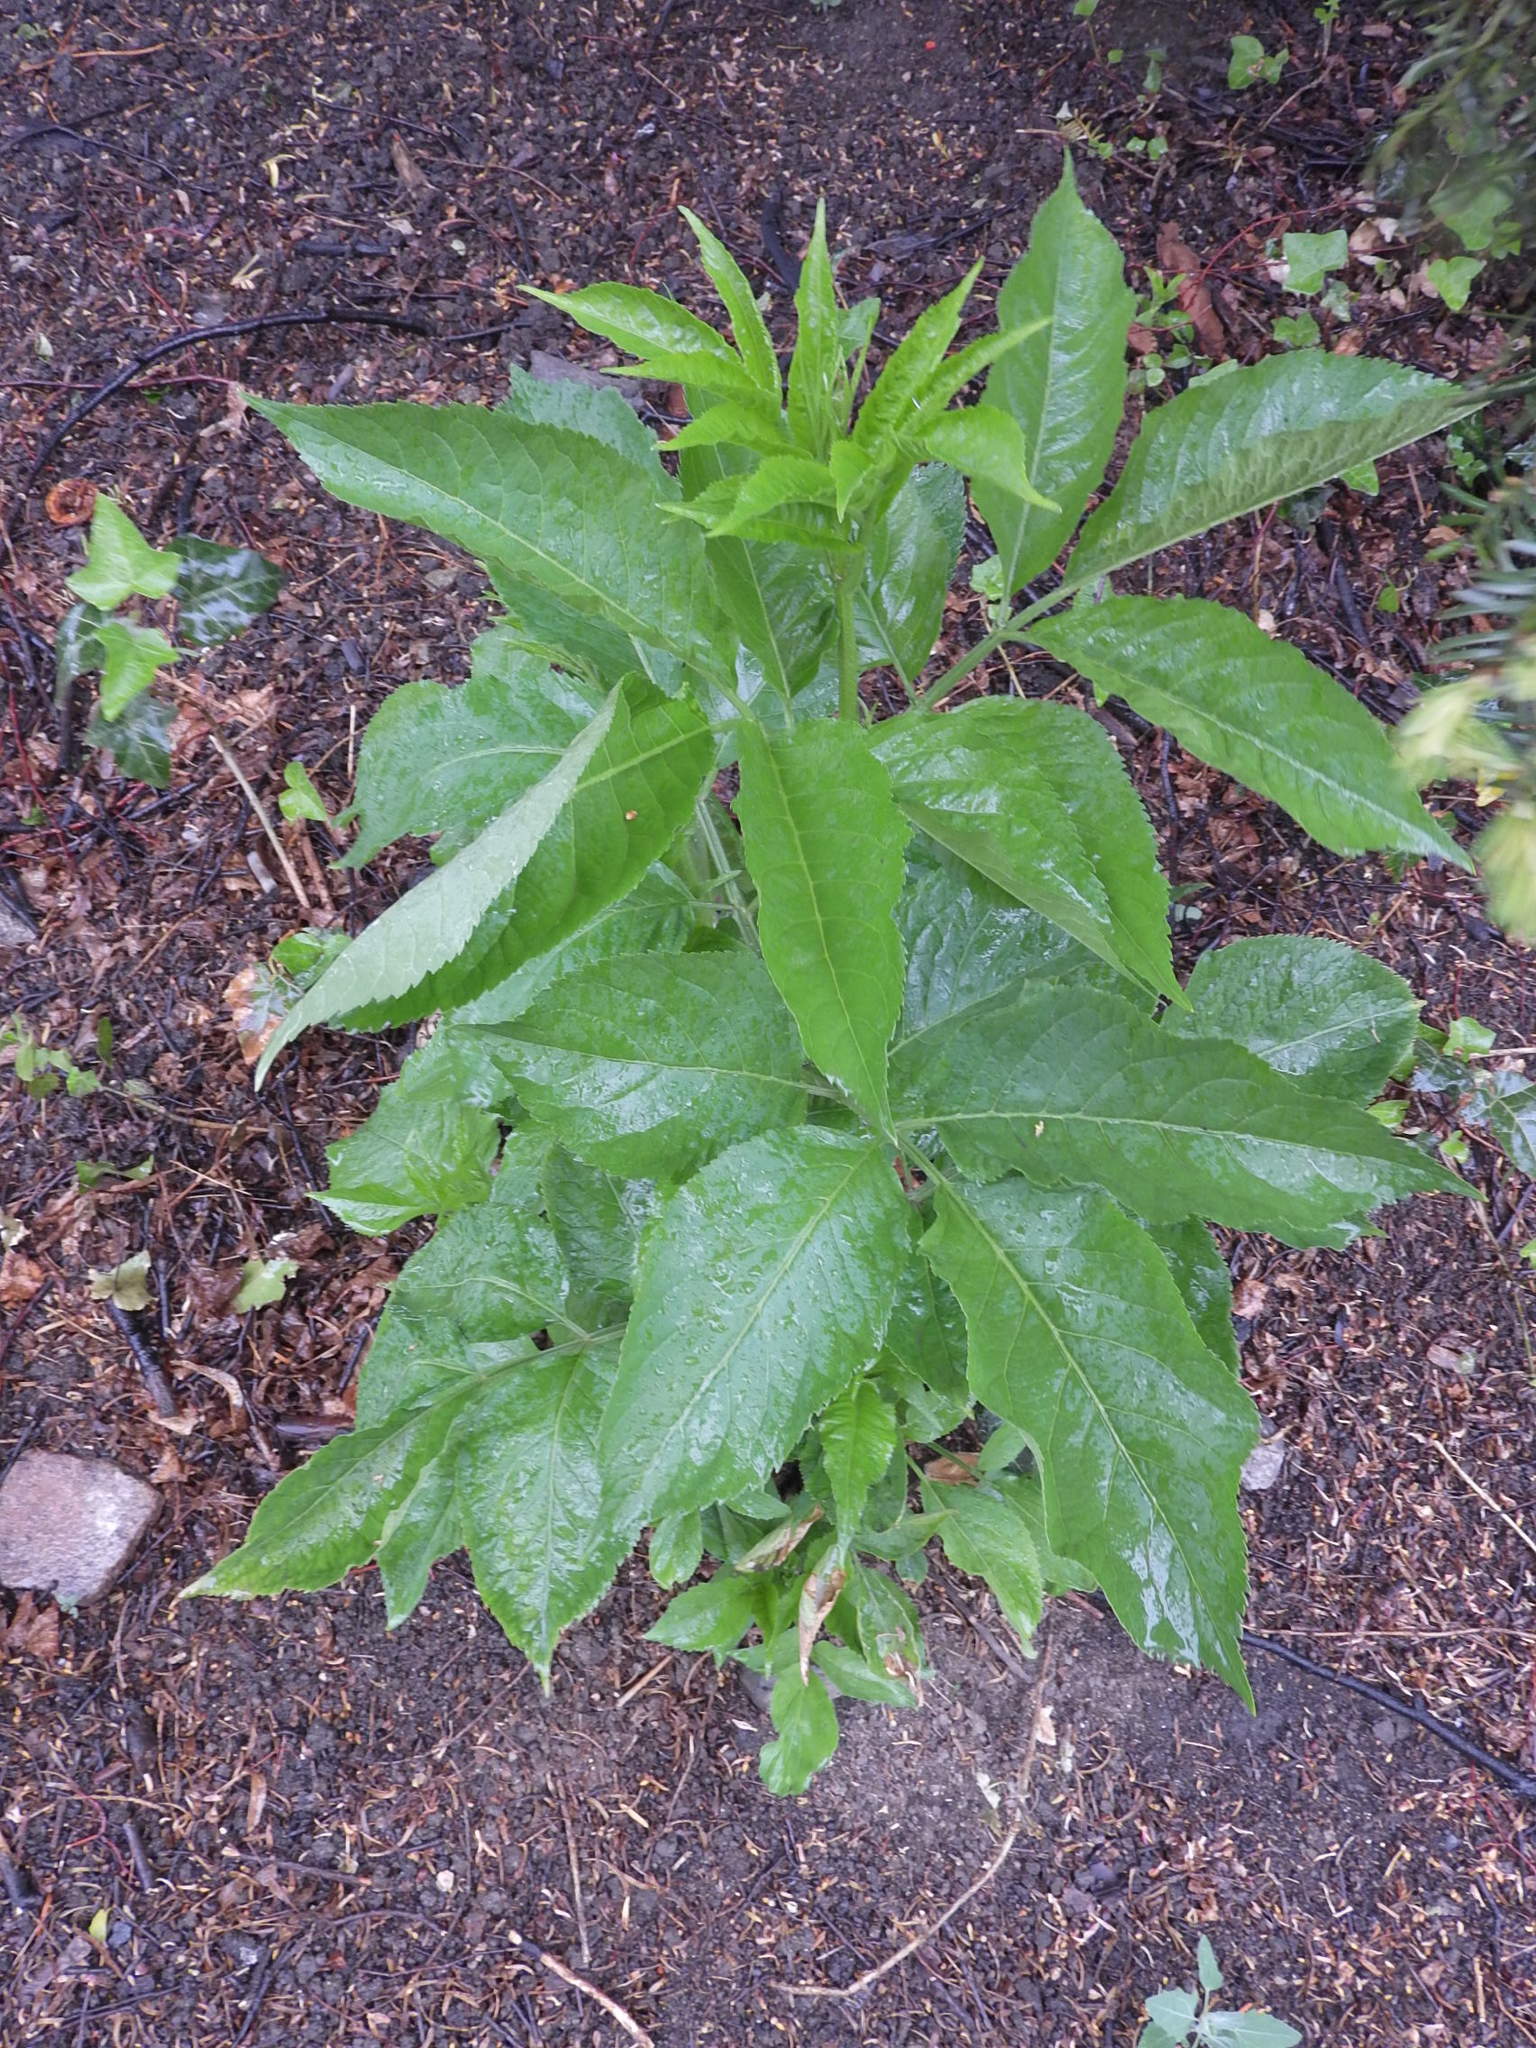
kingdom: Plantae
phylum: Tracheophyta
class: Magnoliopsida
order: Dipsacales
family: Viburnaceae
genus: Sambucus
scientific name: Sambucus nigra
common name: Elder
